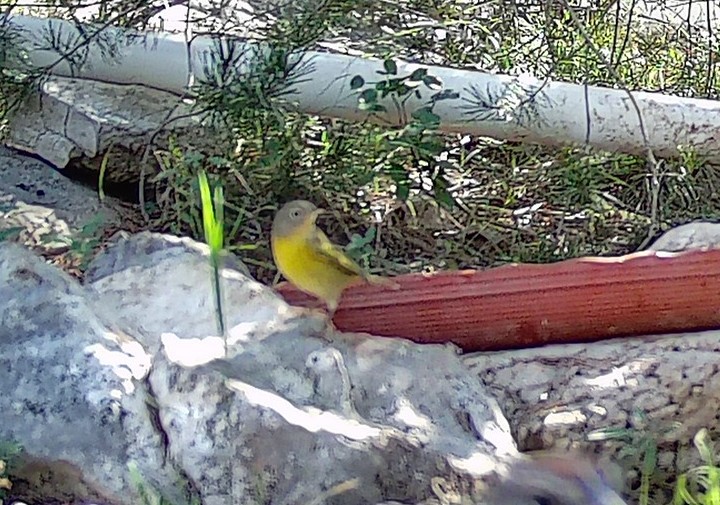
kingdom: Animalia
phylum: Chordata
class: Aves
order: Passeriformes
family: Parulidae
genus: Leiothlypis
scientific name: Leiothlypis ruficapilla
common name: Nashville warbler
